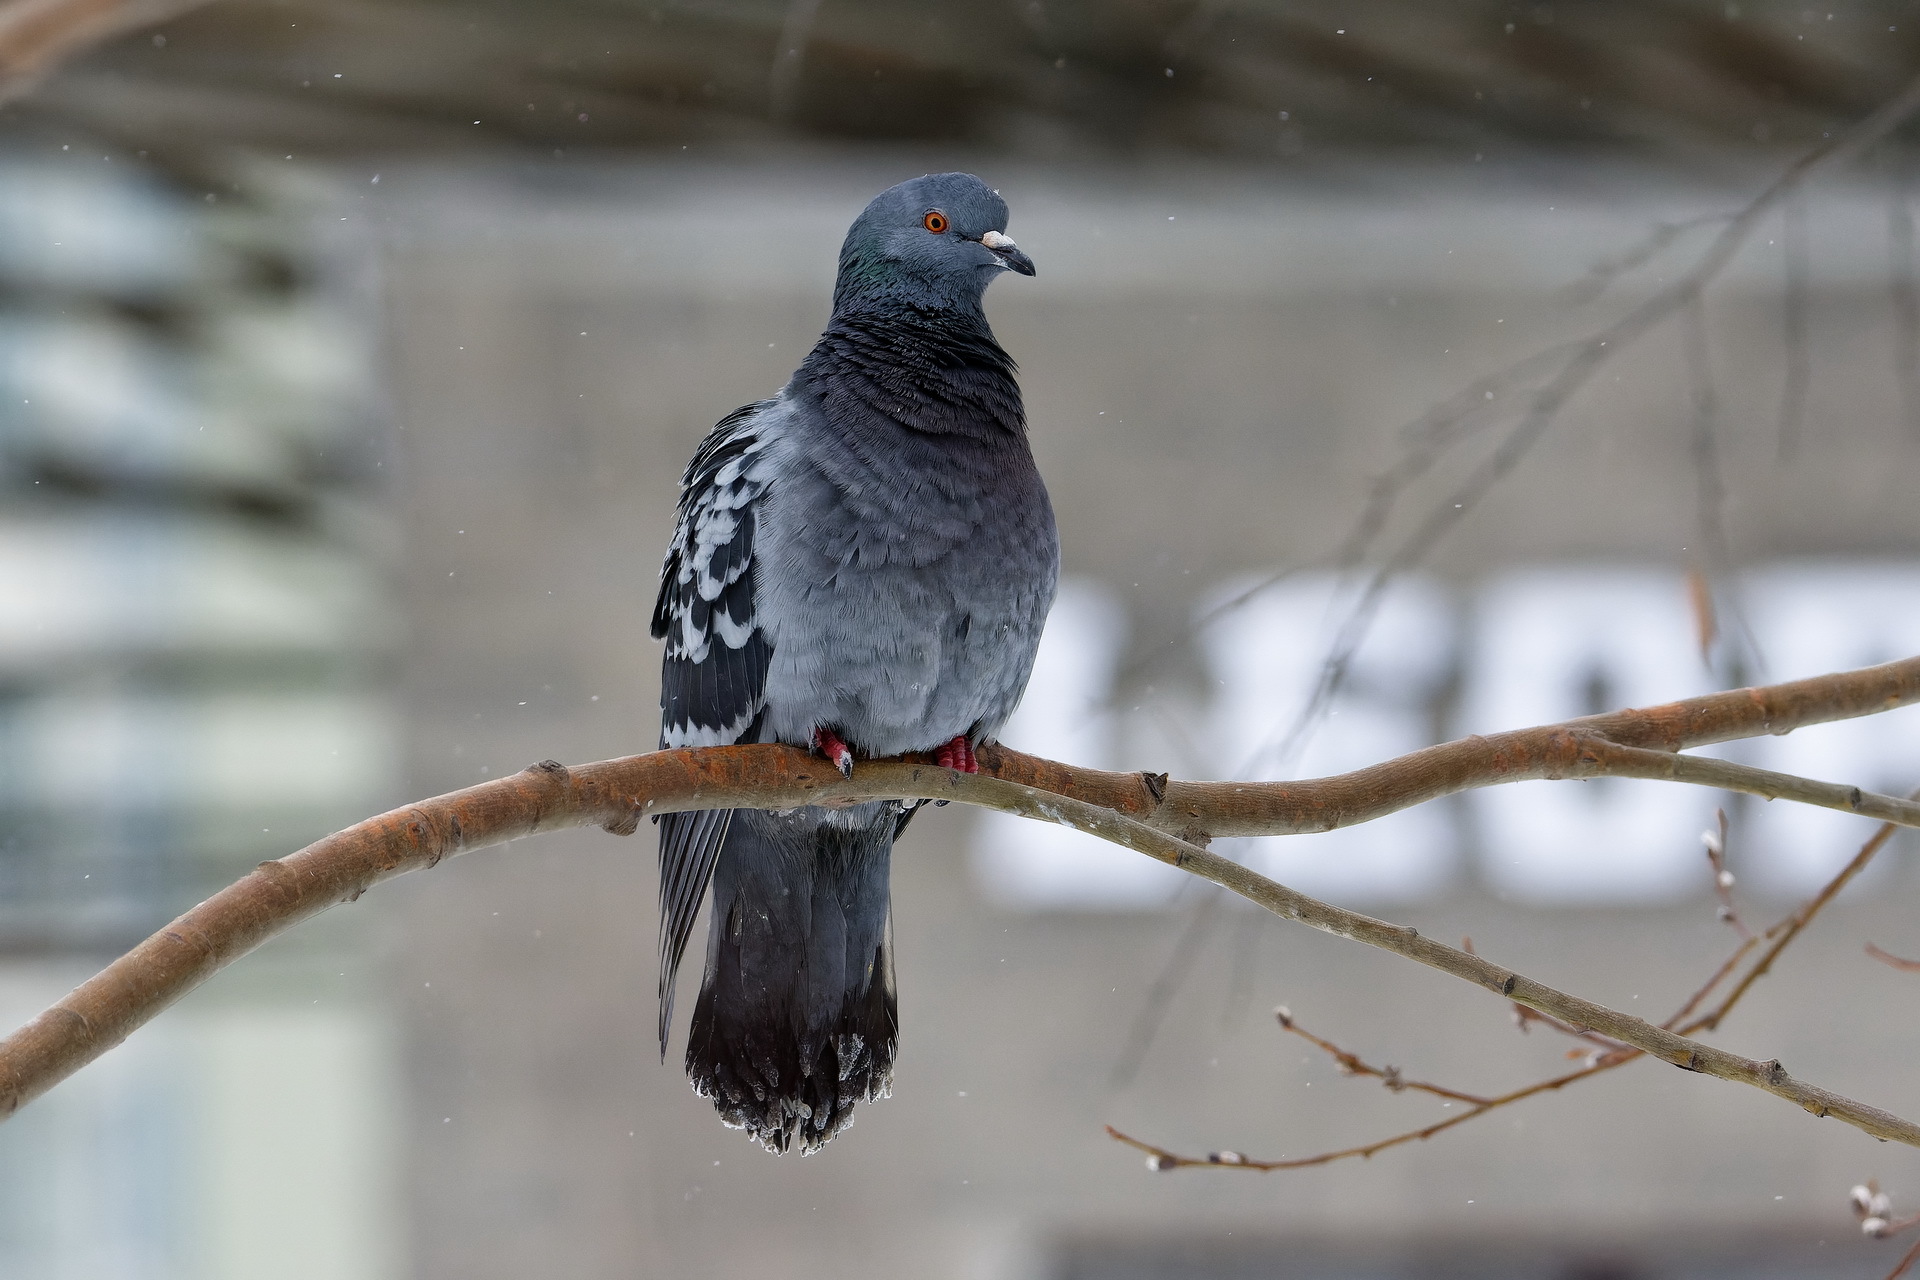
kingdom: Animalia
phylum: Chordata
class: Aves
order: Columbiformes
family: Columbidae
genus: Columba
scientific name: Columba livia
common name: Rock pigeon
